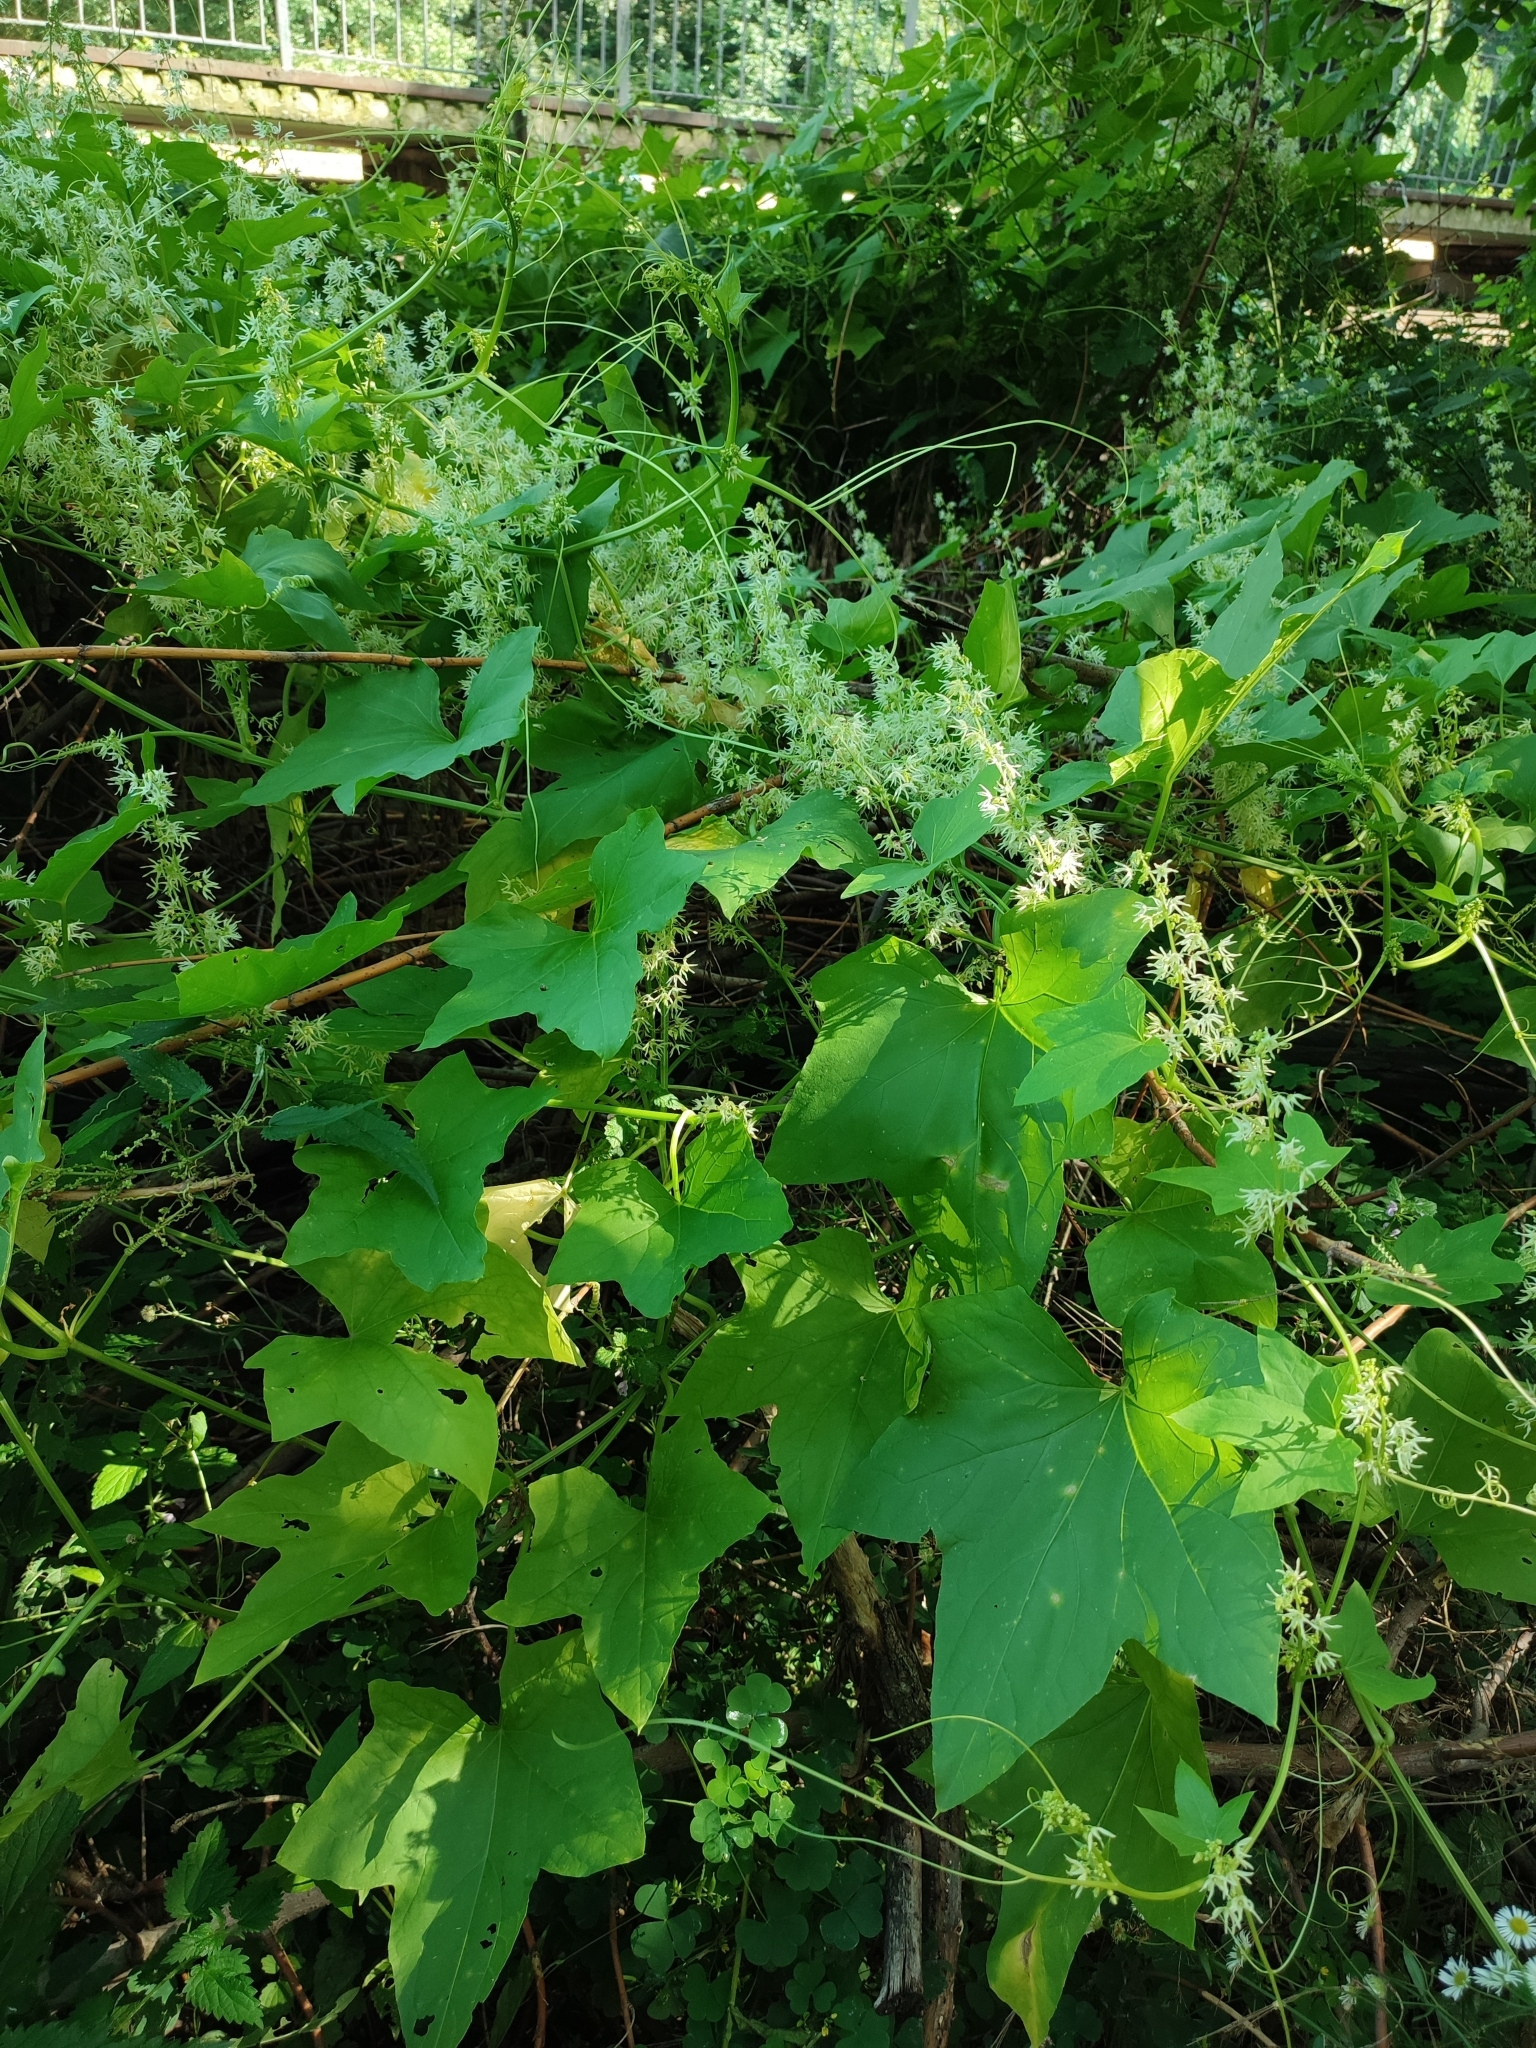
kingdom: Plantae
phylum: Tracheophyta
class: Magnoliopsida
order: Cucurbitales
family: Cucurbitaceae
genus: Echinocystis
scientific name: Echinocystis lobata
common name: Wild cucumber
